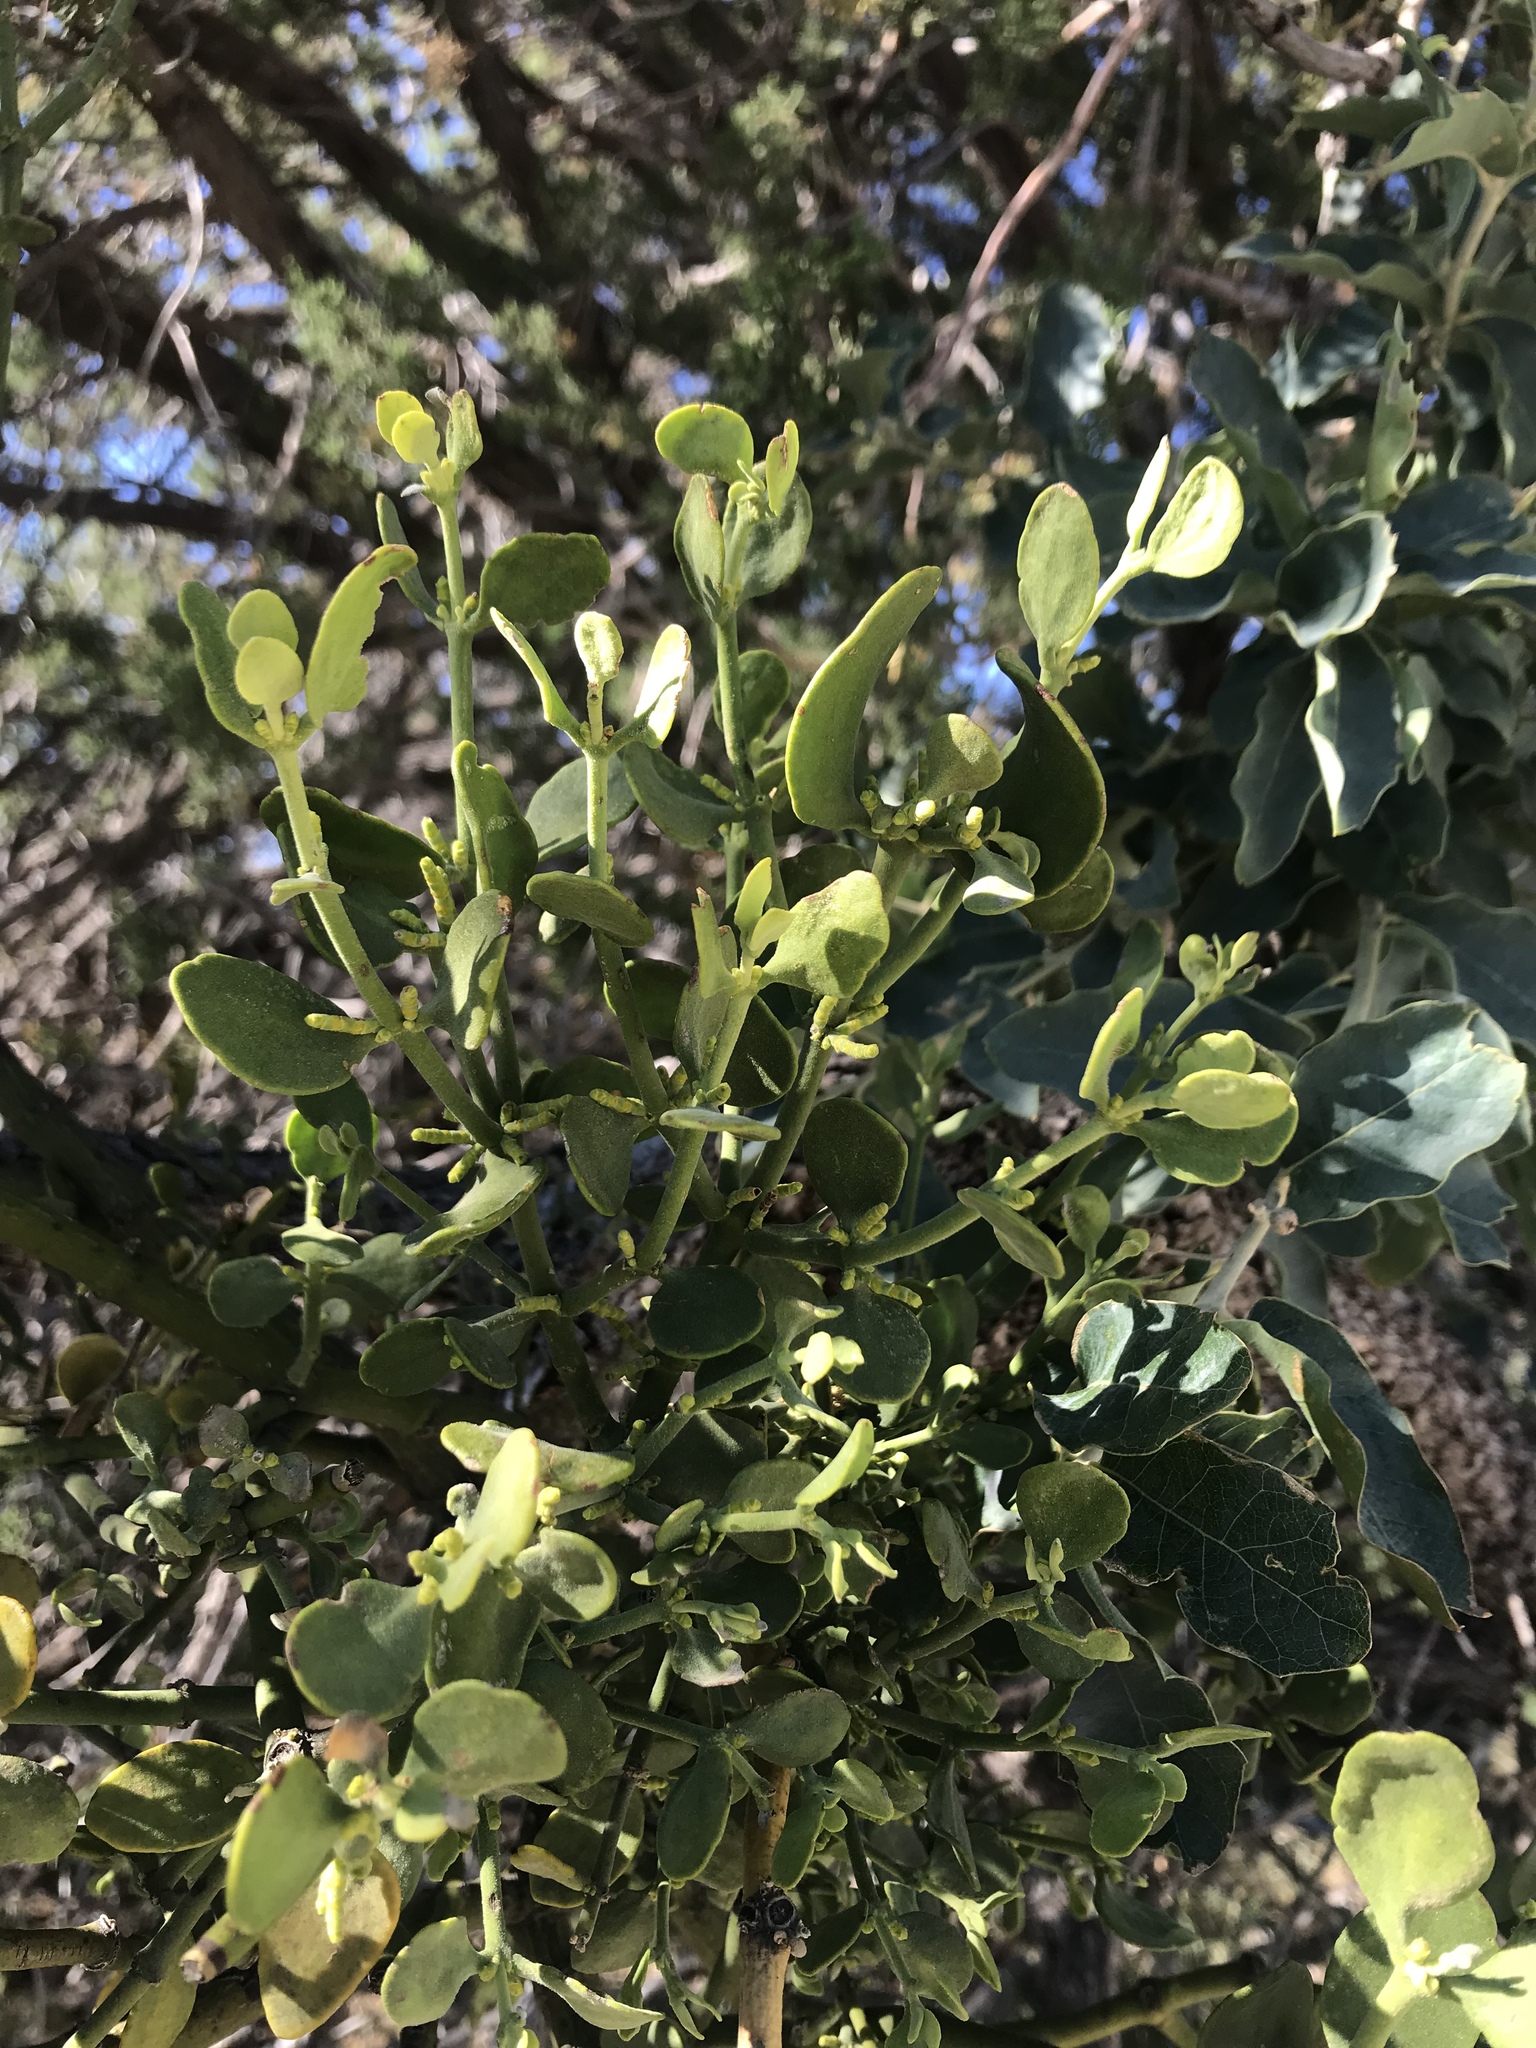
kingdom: Plantae
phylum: Tracheophyta
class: Magnoliopsida
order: Santalales
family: Viscaceae
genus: Phoradendron
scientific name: Phoradendron leucarpum
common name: Pacific mistletoe
